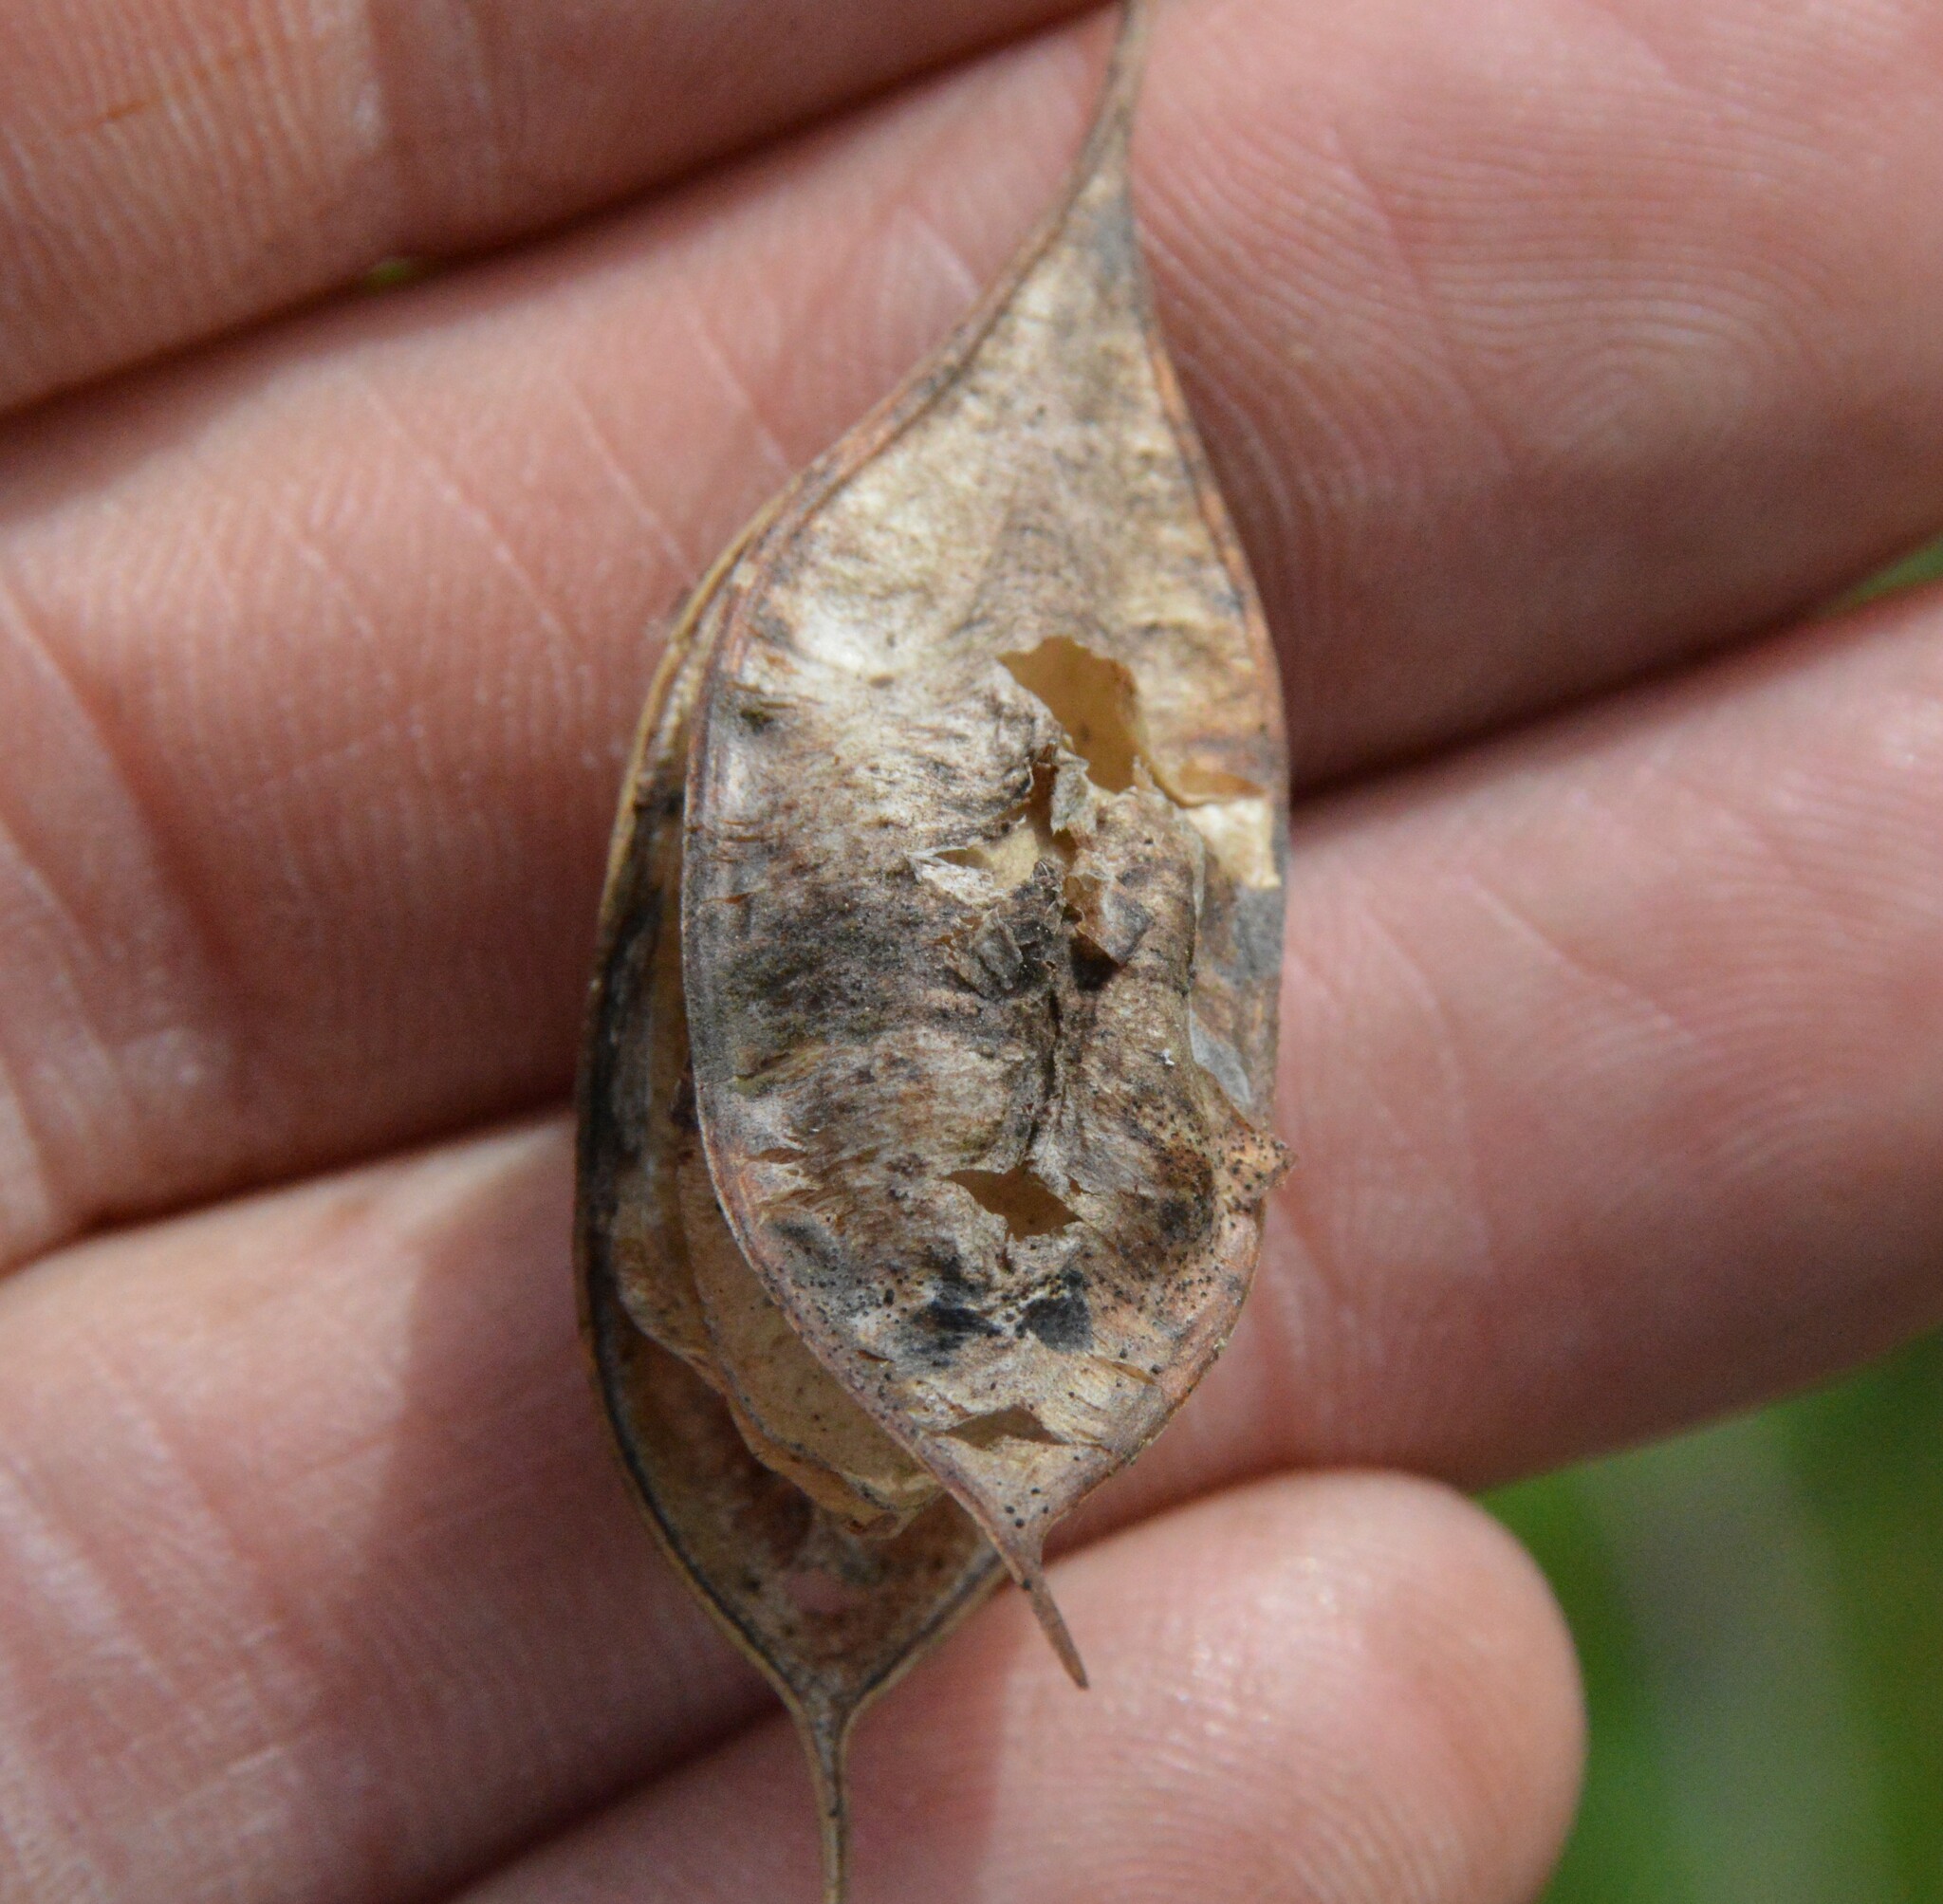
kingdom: Plantae
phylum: Tracheophyta
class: Magnoliopsida
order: Fabales
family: Fabaceae
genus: Sesbania
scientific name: Sesbania vesicaria
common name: Bagpod
